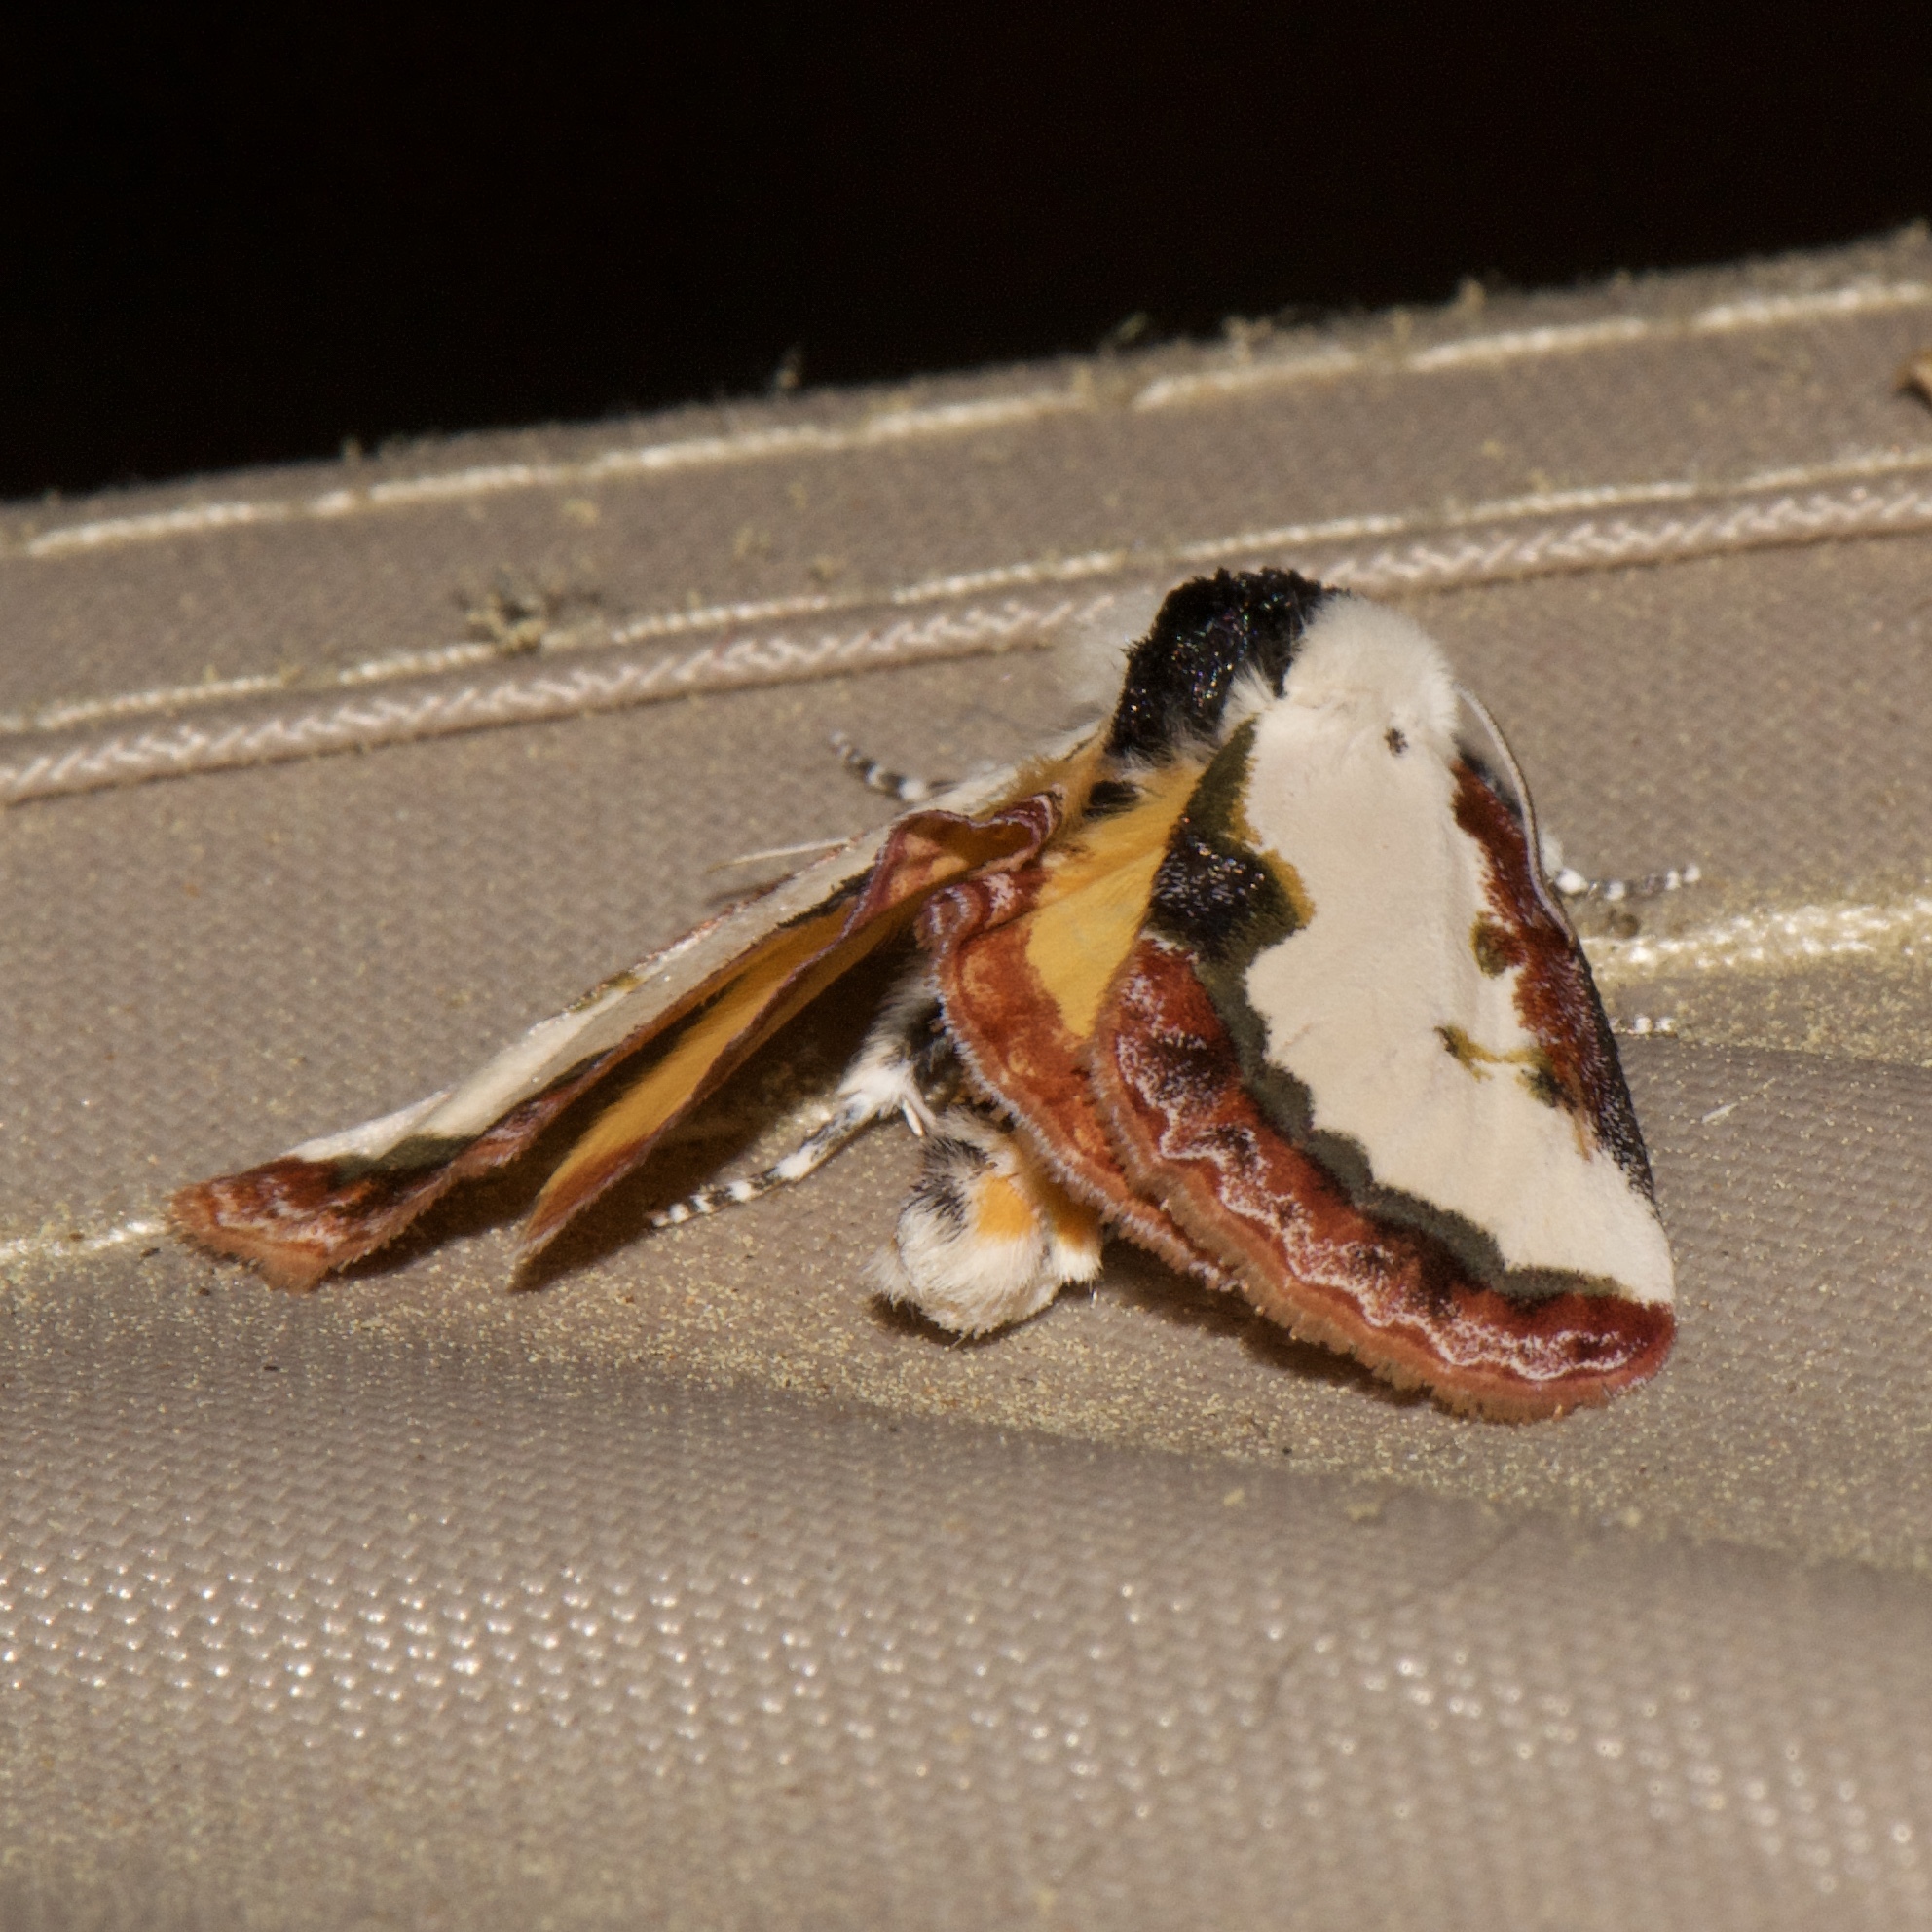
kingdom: Animalia
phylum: Arthropoda
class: Insecta
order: Lepidoptera
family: Noctuidae
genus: Eudryas
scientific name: Eudryas unio
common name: Pearly wood-nymph
